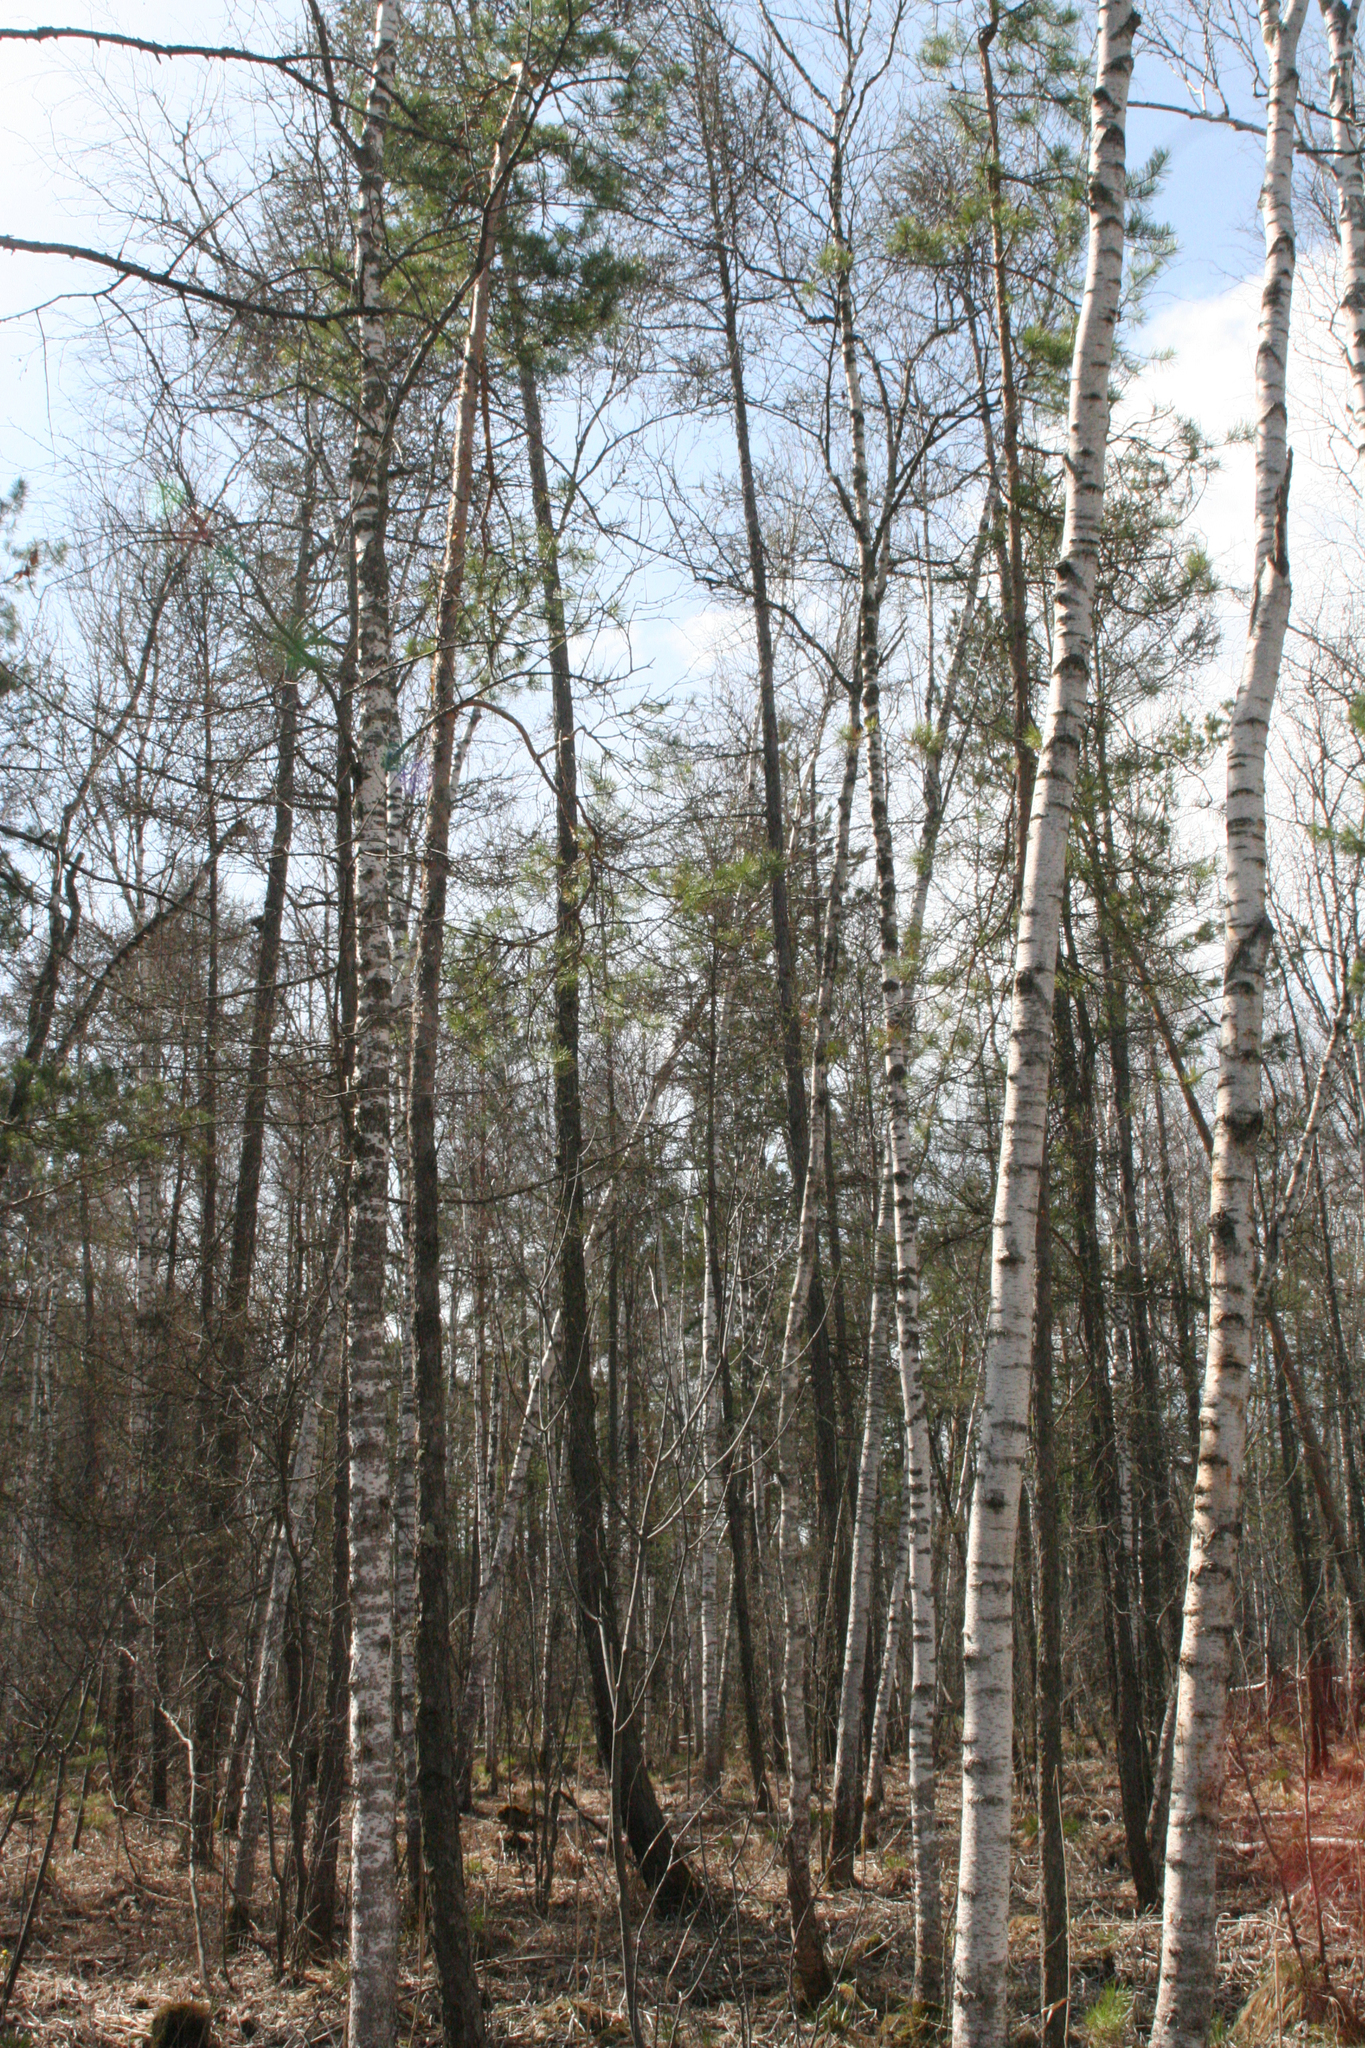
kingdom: Plantae
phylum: Tracheophyta
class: Magnoliopsida
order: Fagales
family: Betulaceae
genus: Betula
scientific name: Betula pubescens
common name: Downy birch
